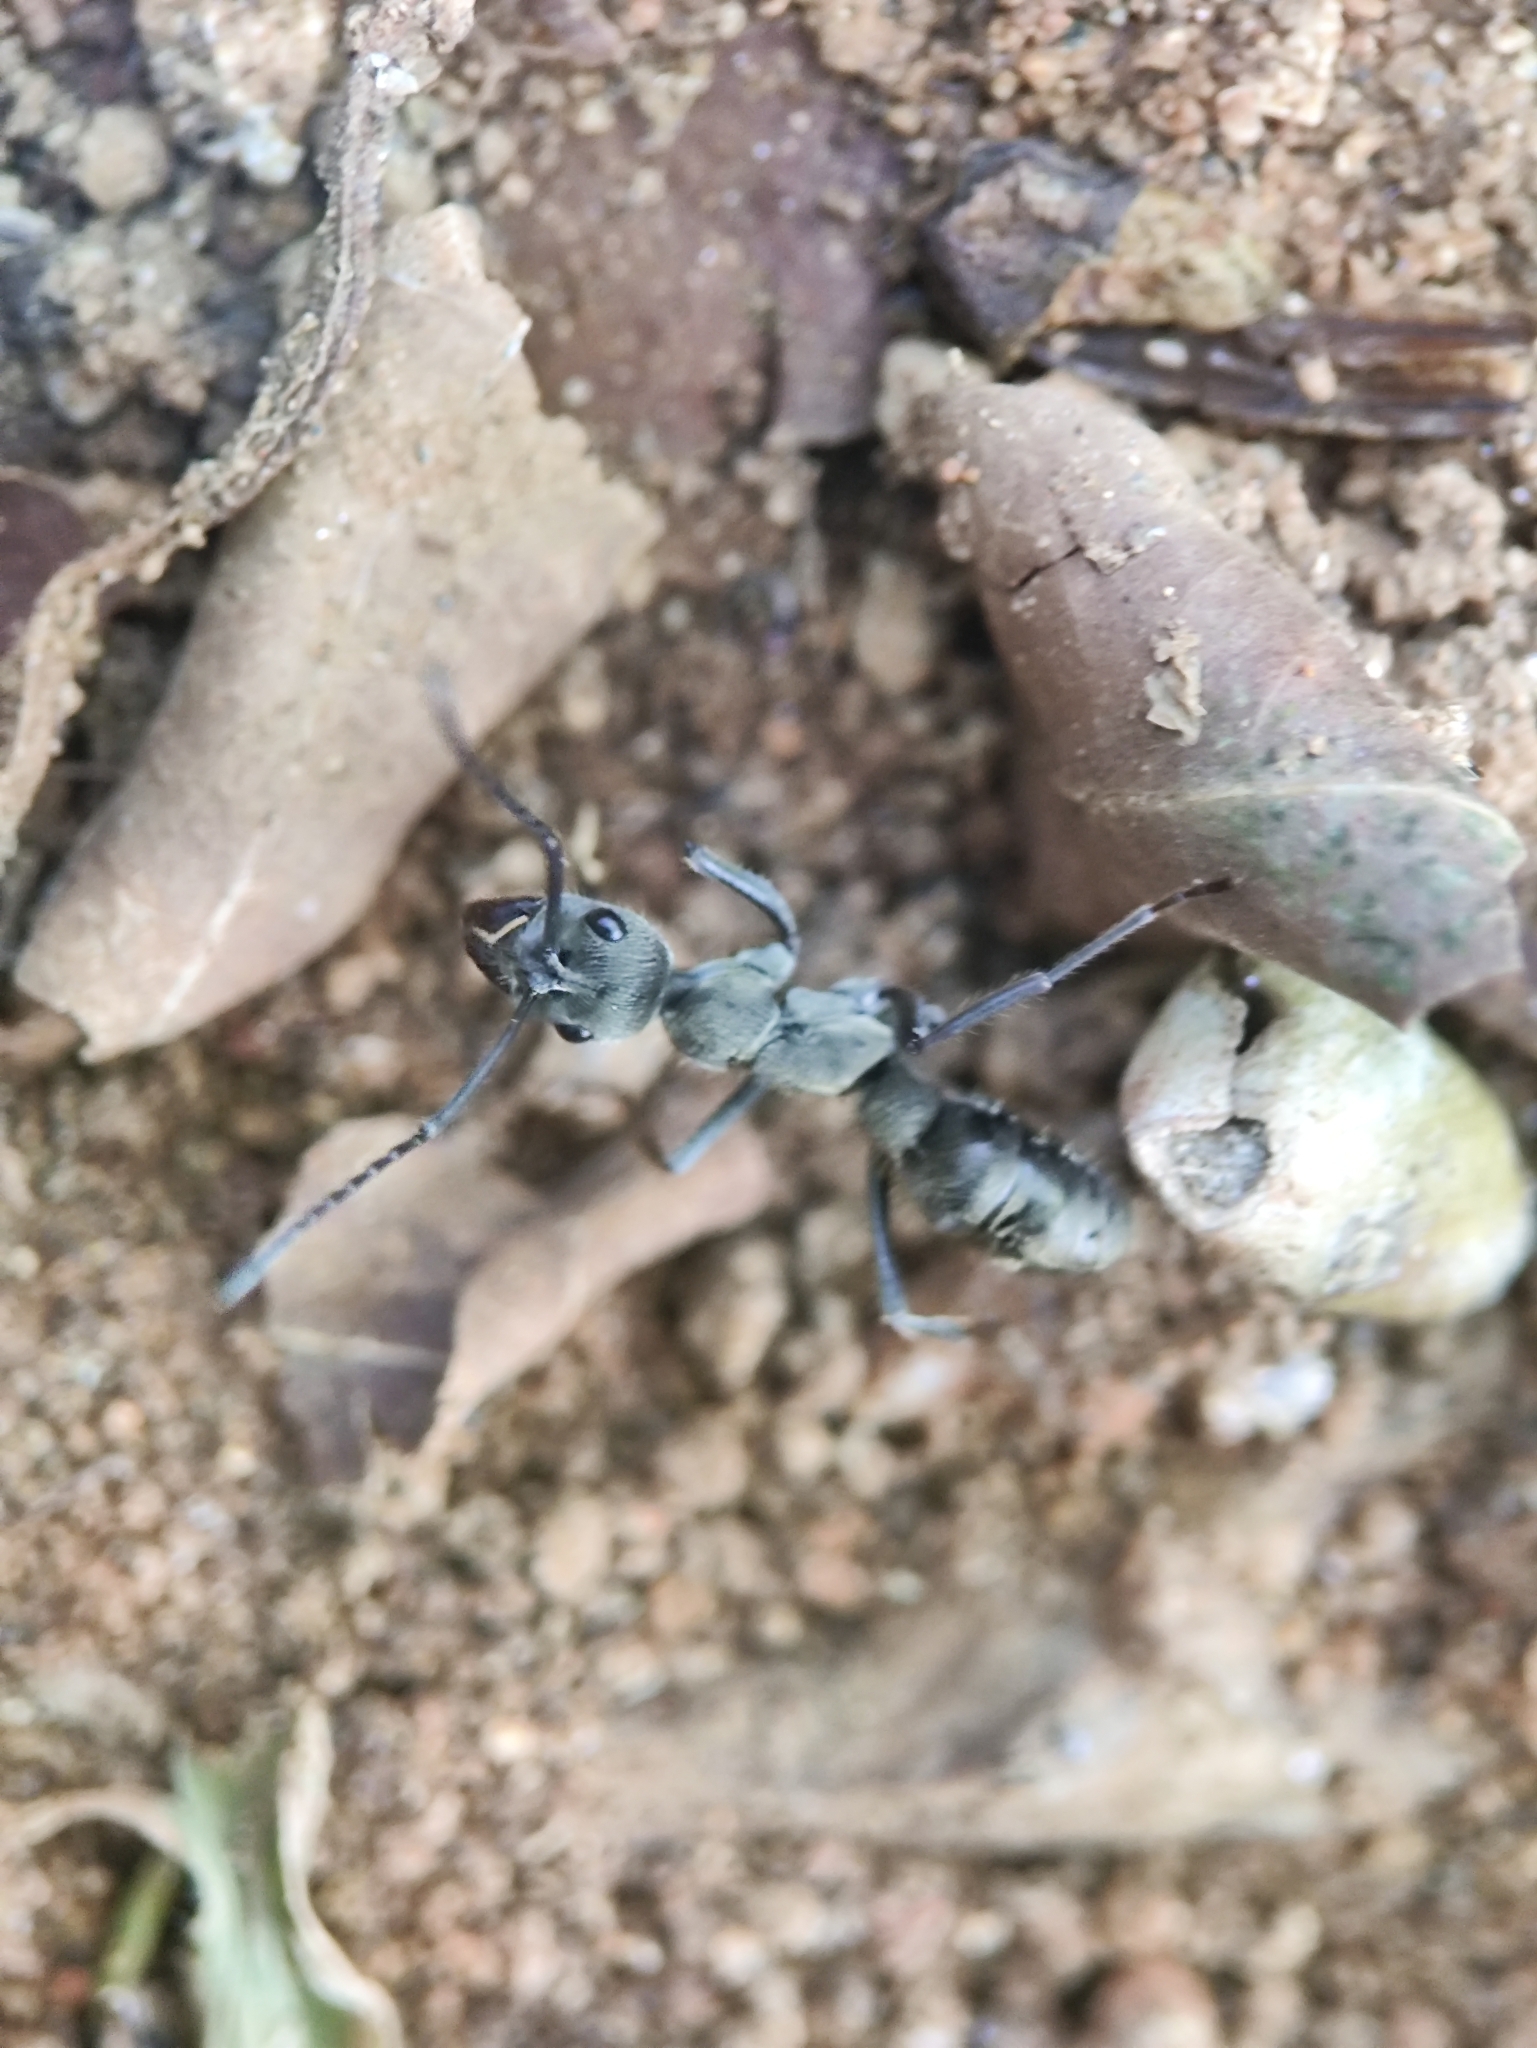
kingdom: Animalia
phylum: Arthropoda
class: Insecta
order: Hymenoptera
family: Formicidae
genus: Diacamma
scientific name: Diacamma rugosum
